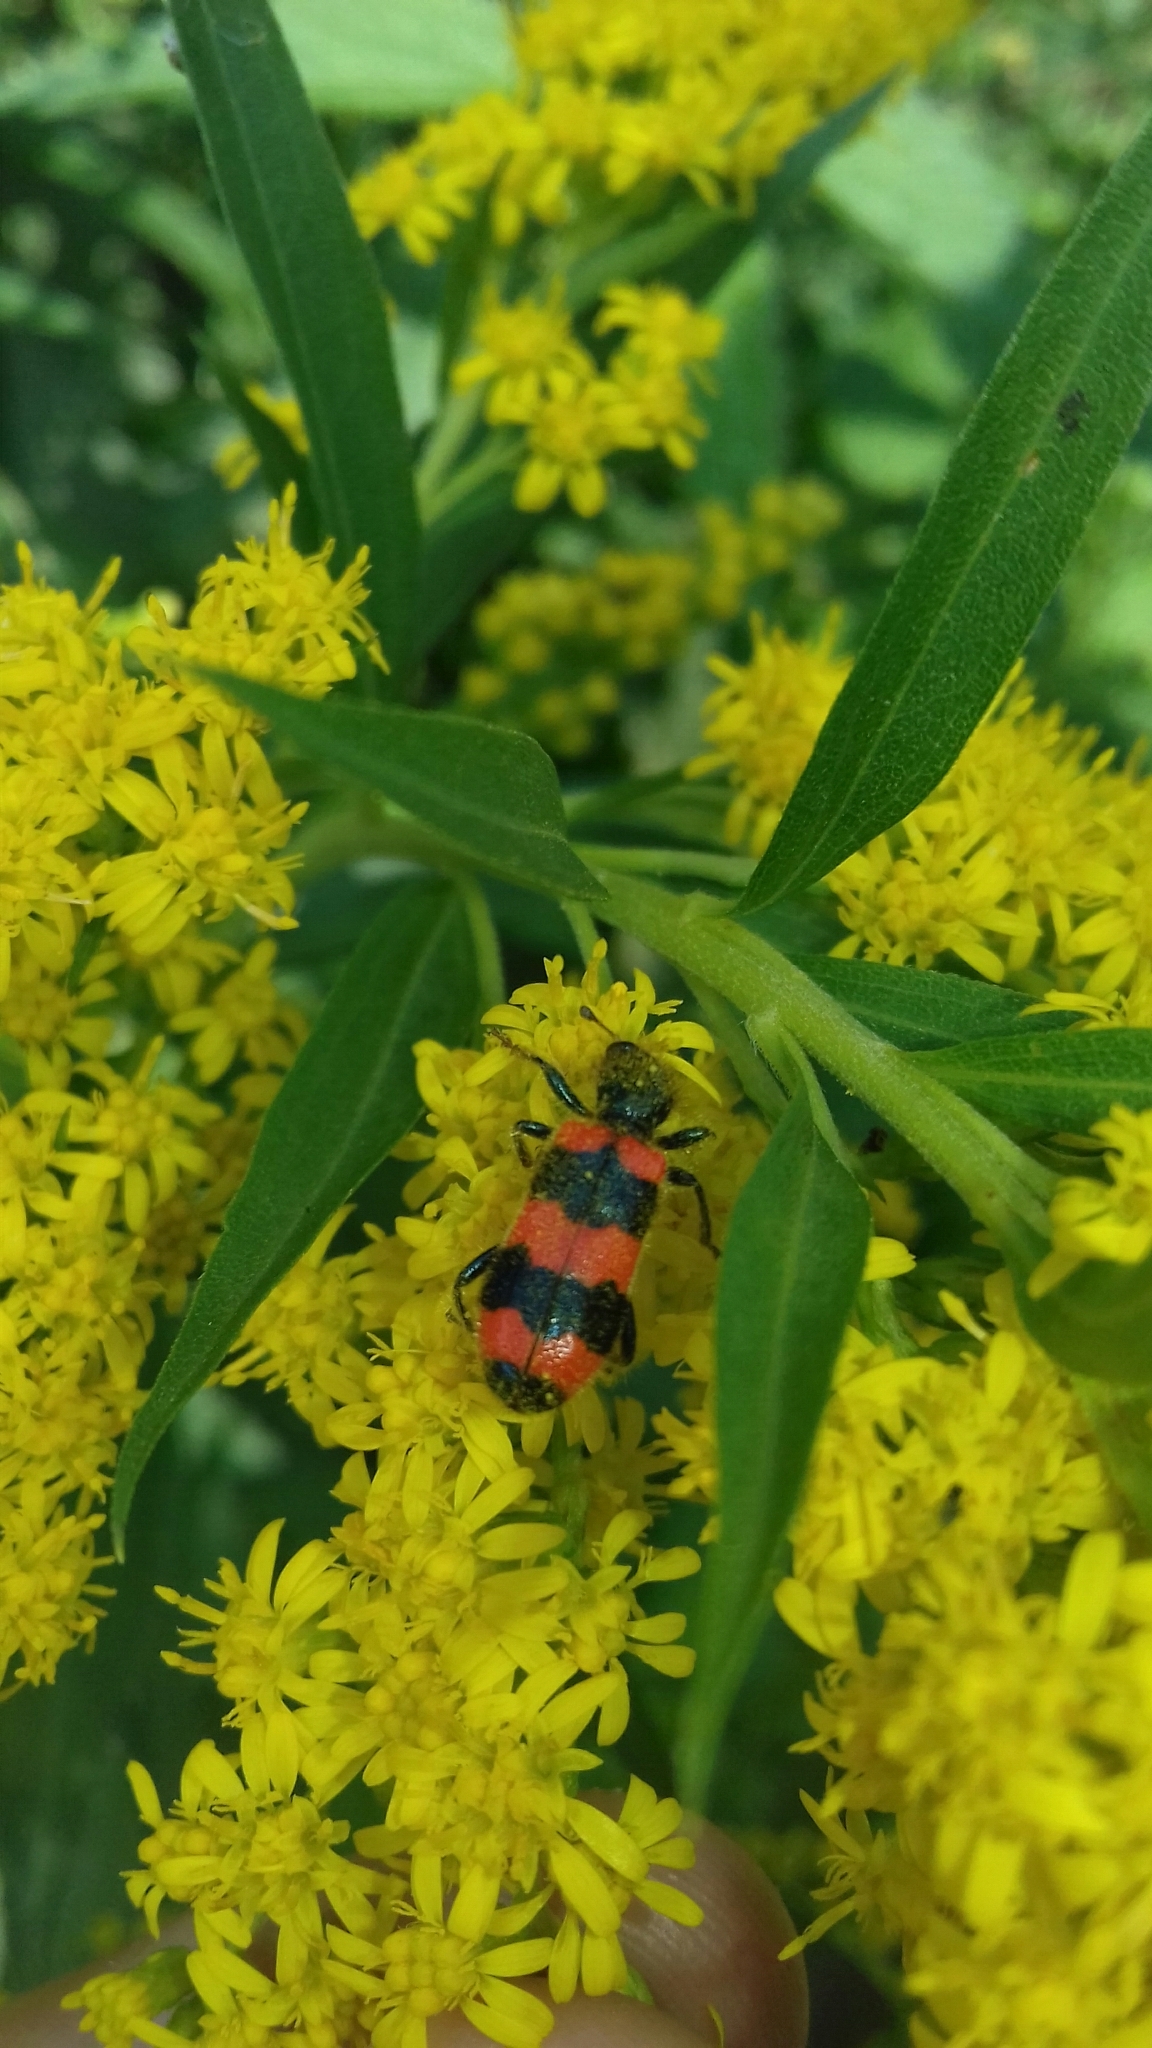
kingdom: Animalia
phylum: Arthropoda
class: Insecta
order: Coleoptera
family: Cleridae
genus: Trichodes
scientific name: Trichodes apiarius
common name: Bee-eating beetle
